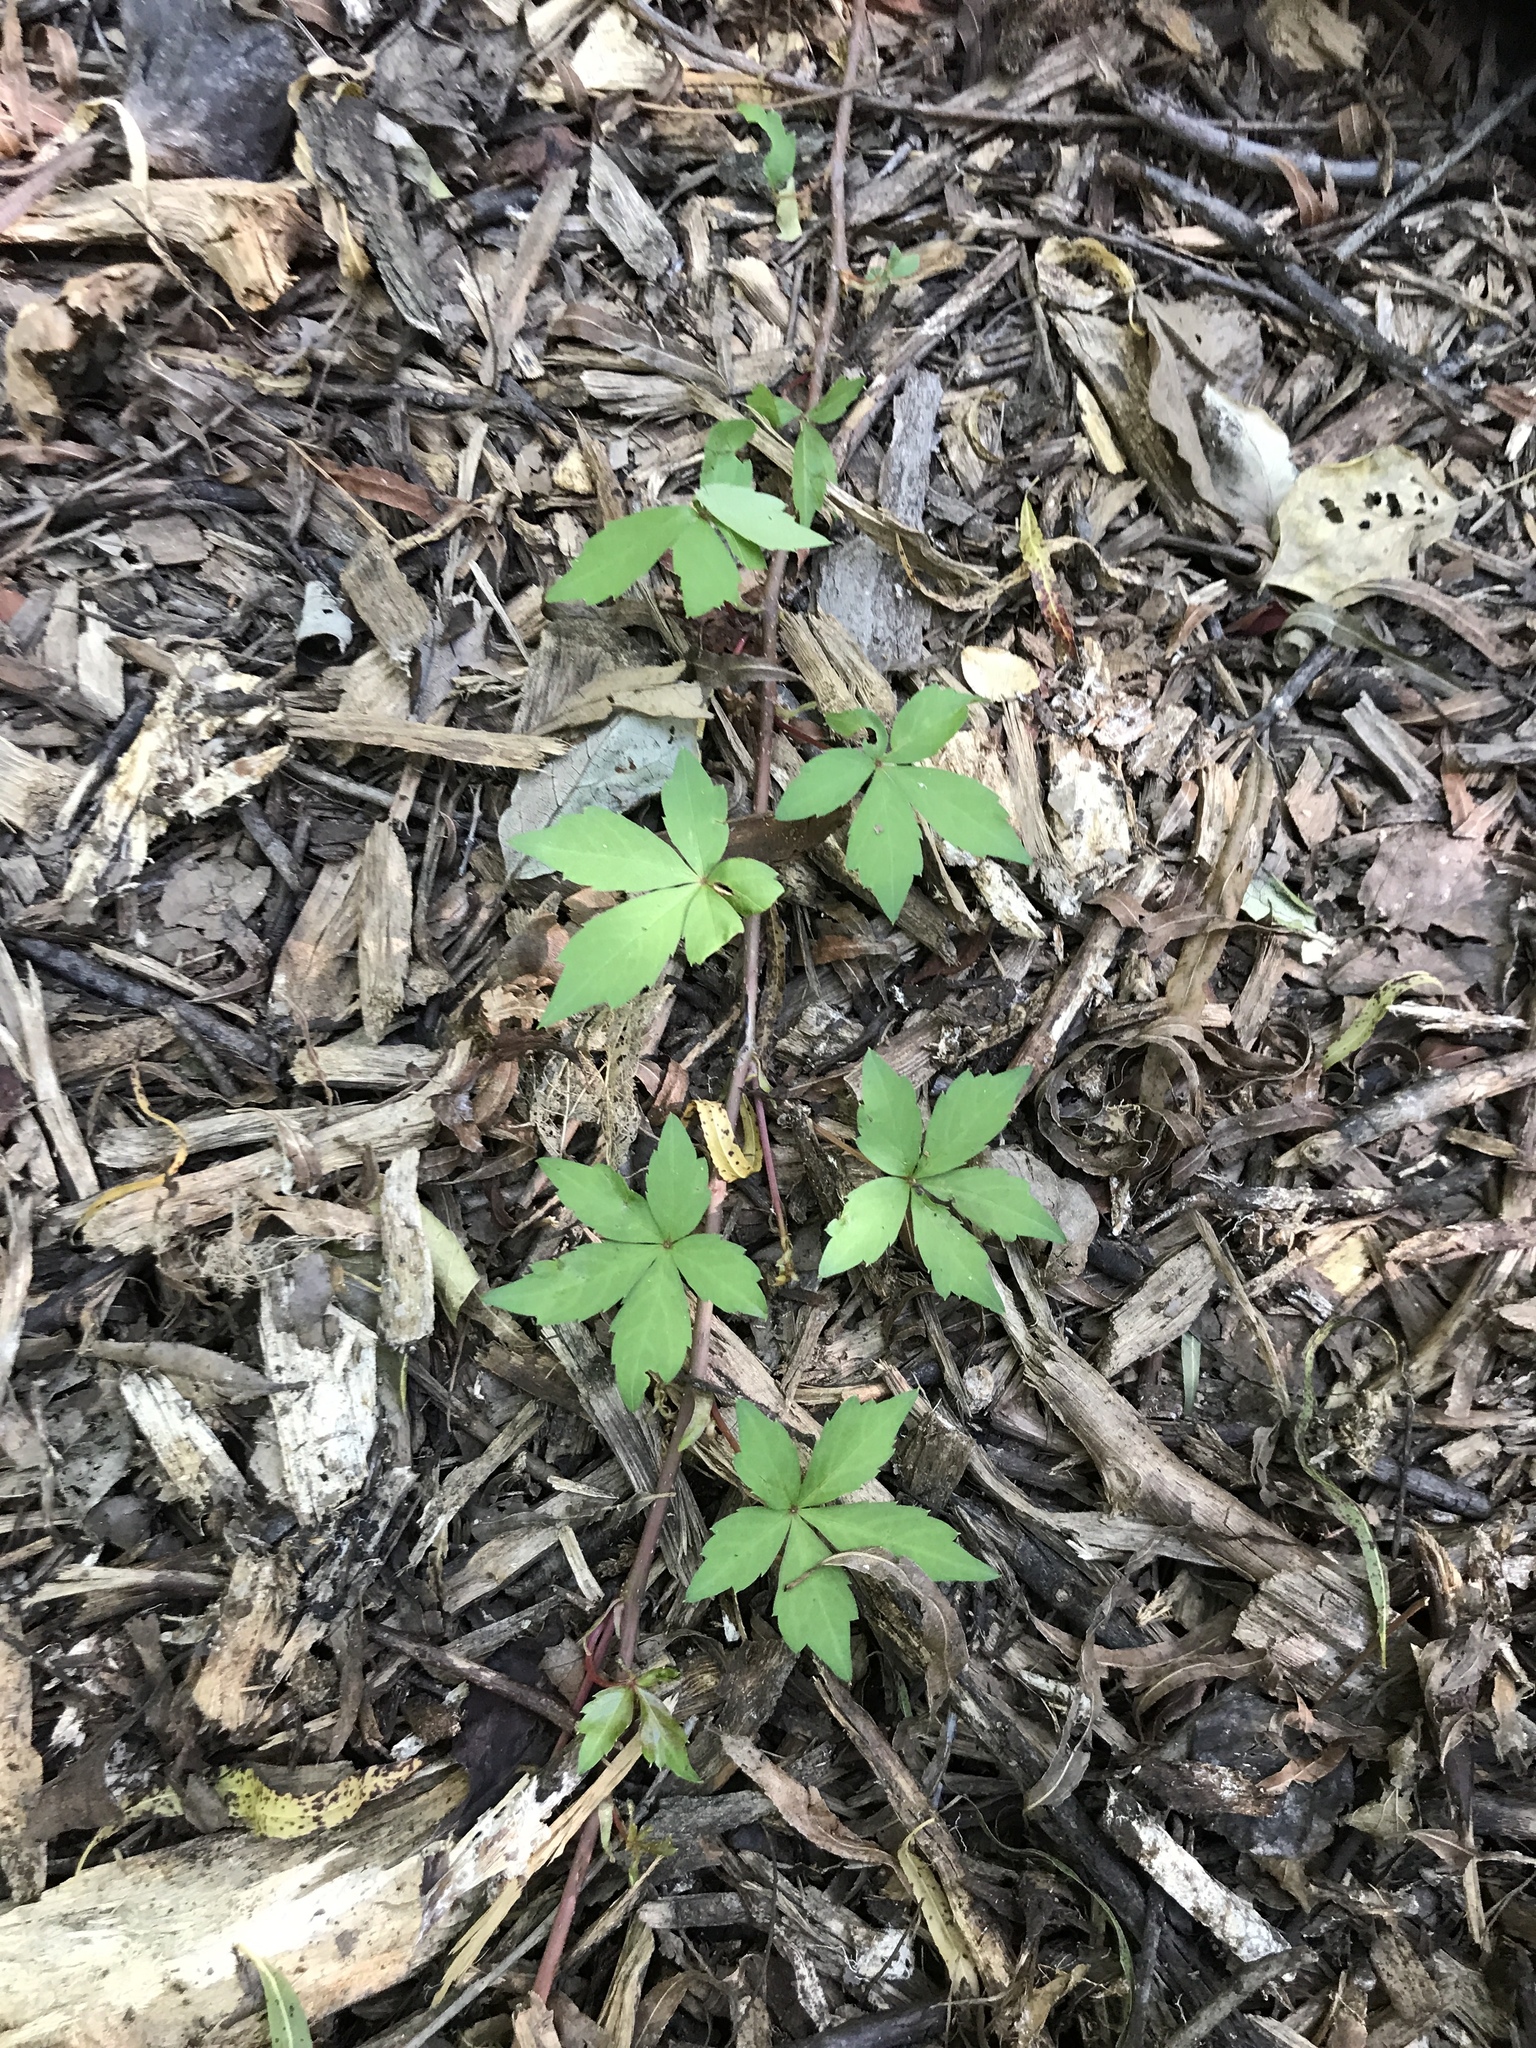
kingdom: Plantae
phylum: Tracheophyta
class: Magnoliopsida
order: Vitales
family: Vitaceae
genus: Parthenocissus
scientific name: Parthenocissus quinquefolia
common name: Virginia-creeper
